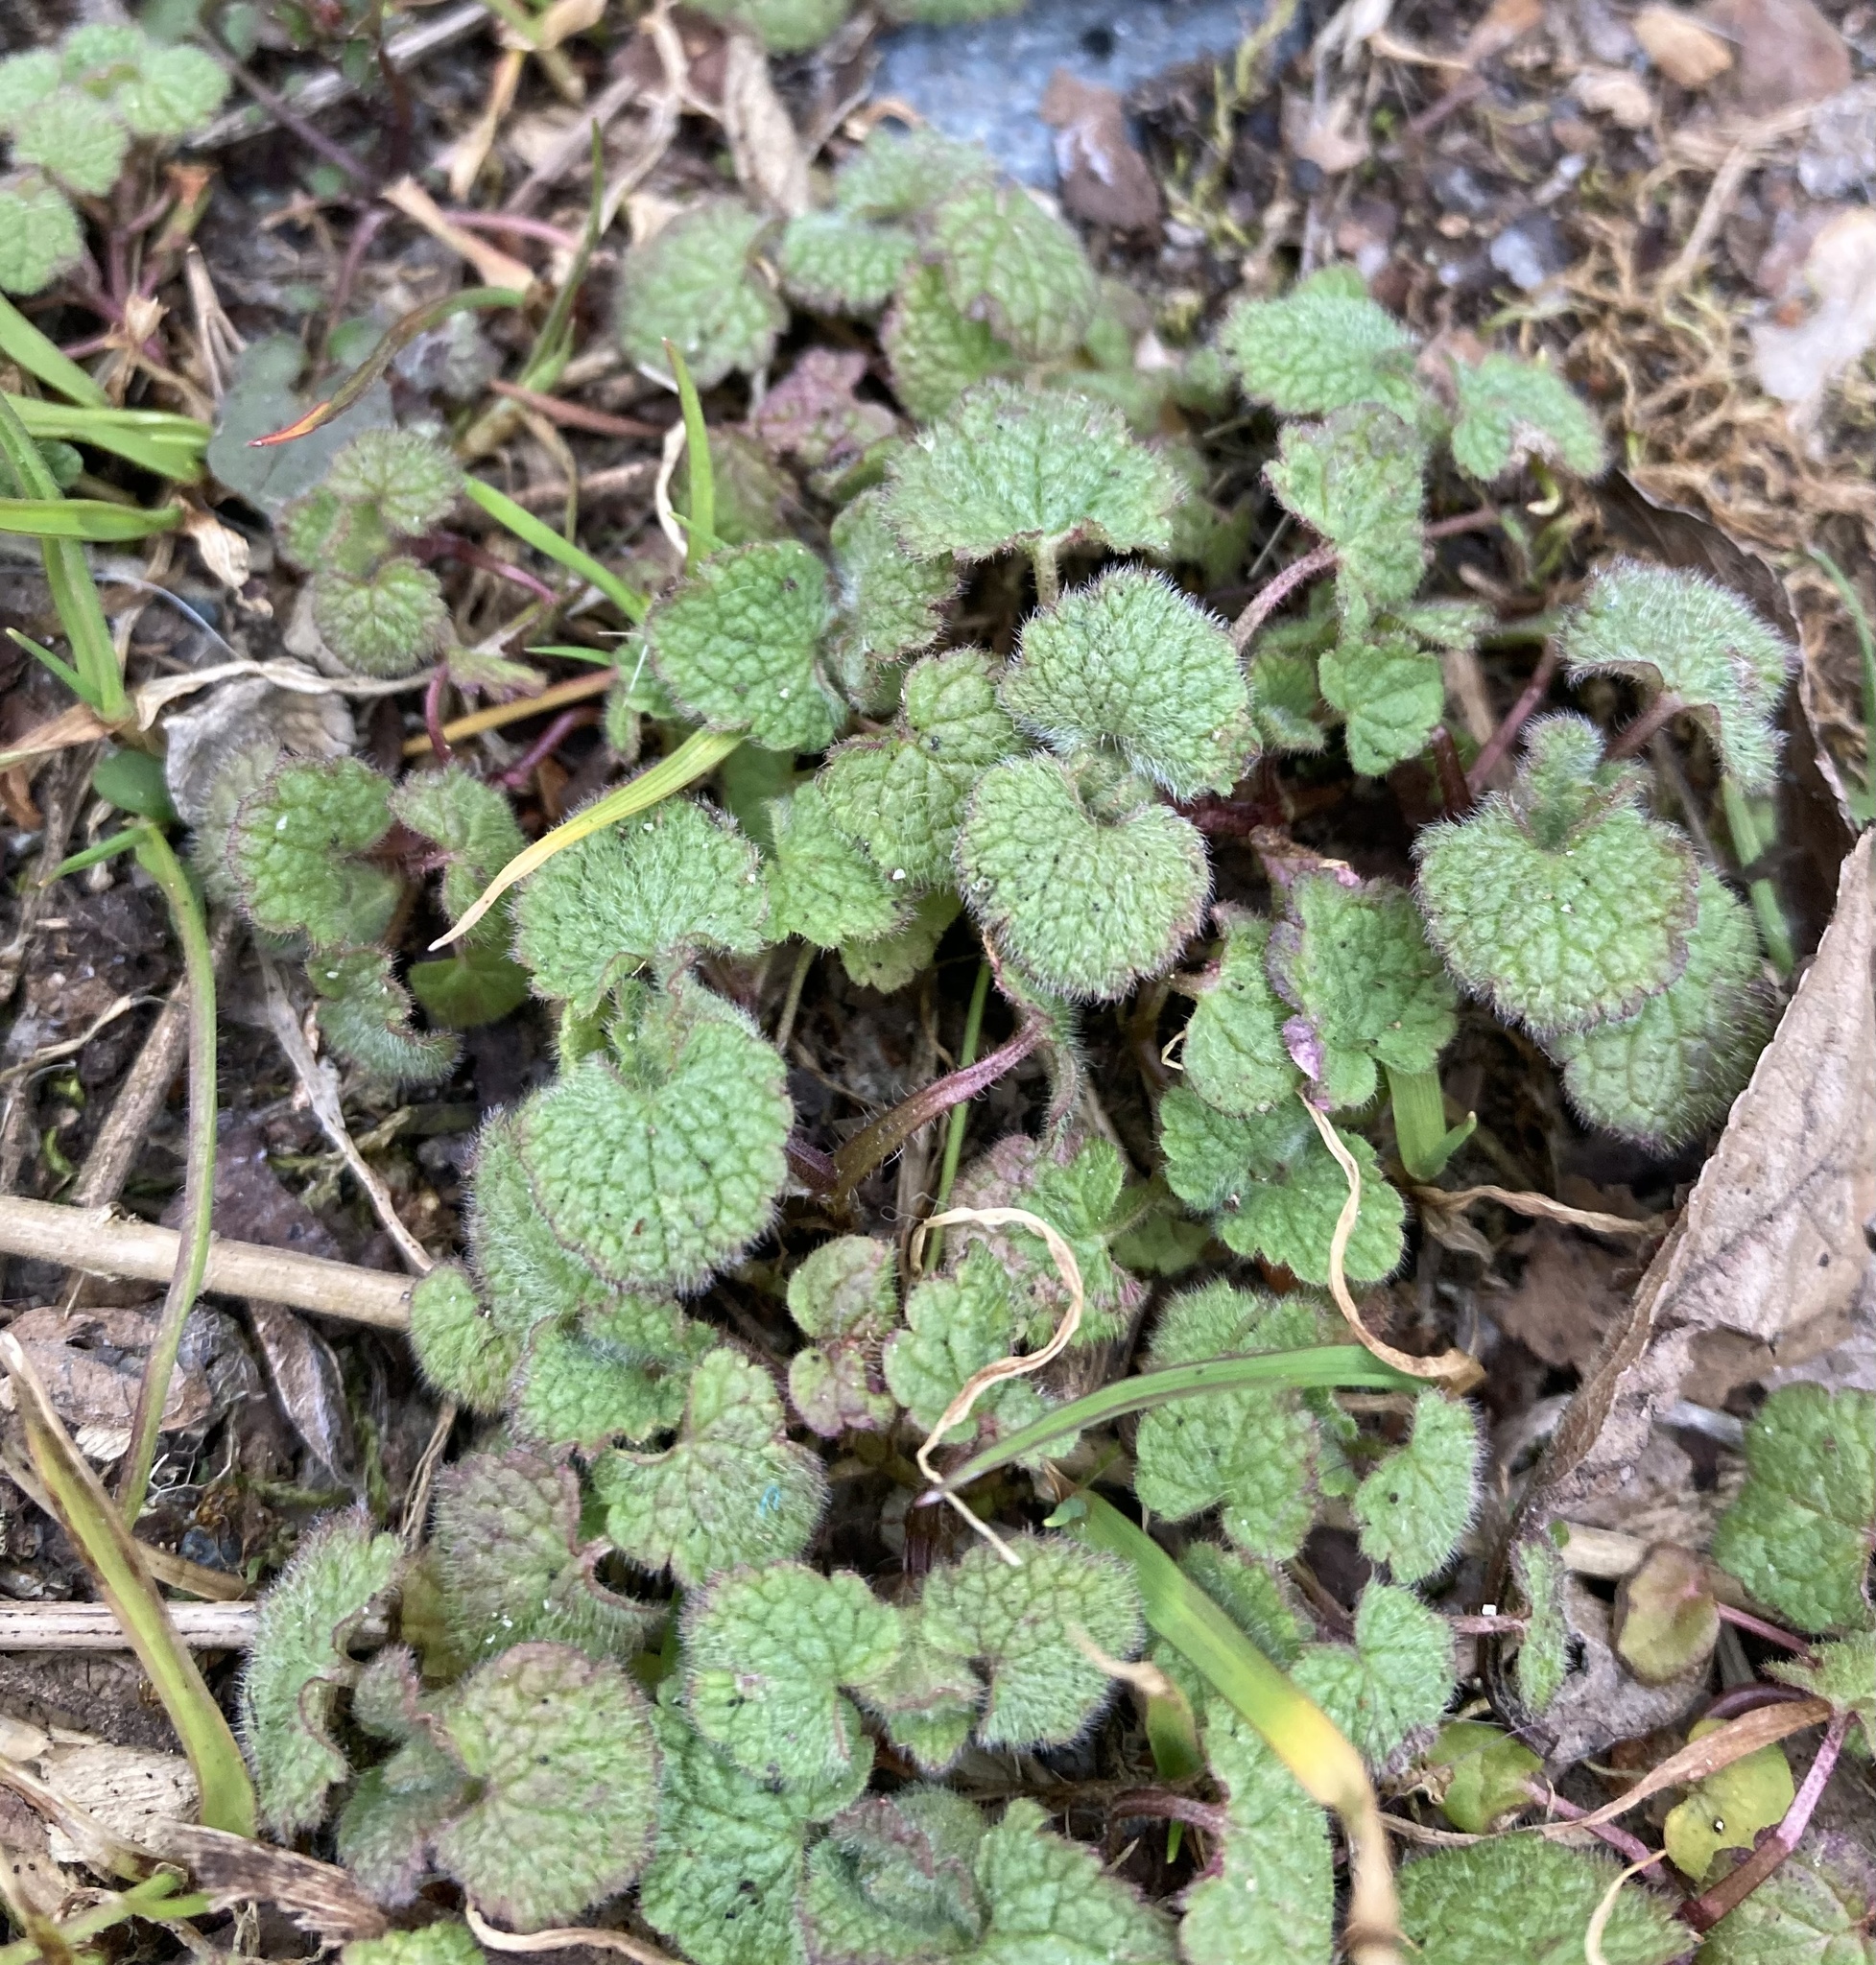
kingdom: Plantae
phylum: Tracheophyta
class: Magnoliopsida
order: Lamiales
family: Lamiaceae
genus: Lamium
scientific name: Lamium purpureum
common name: Red dead-nettle
